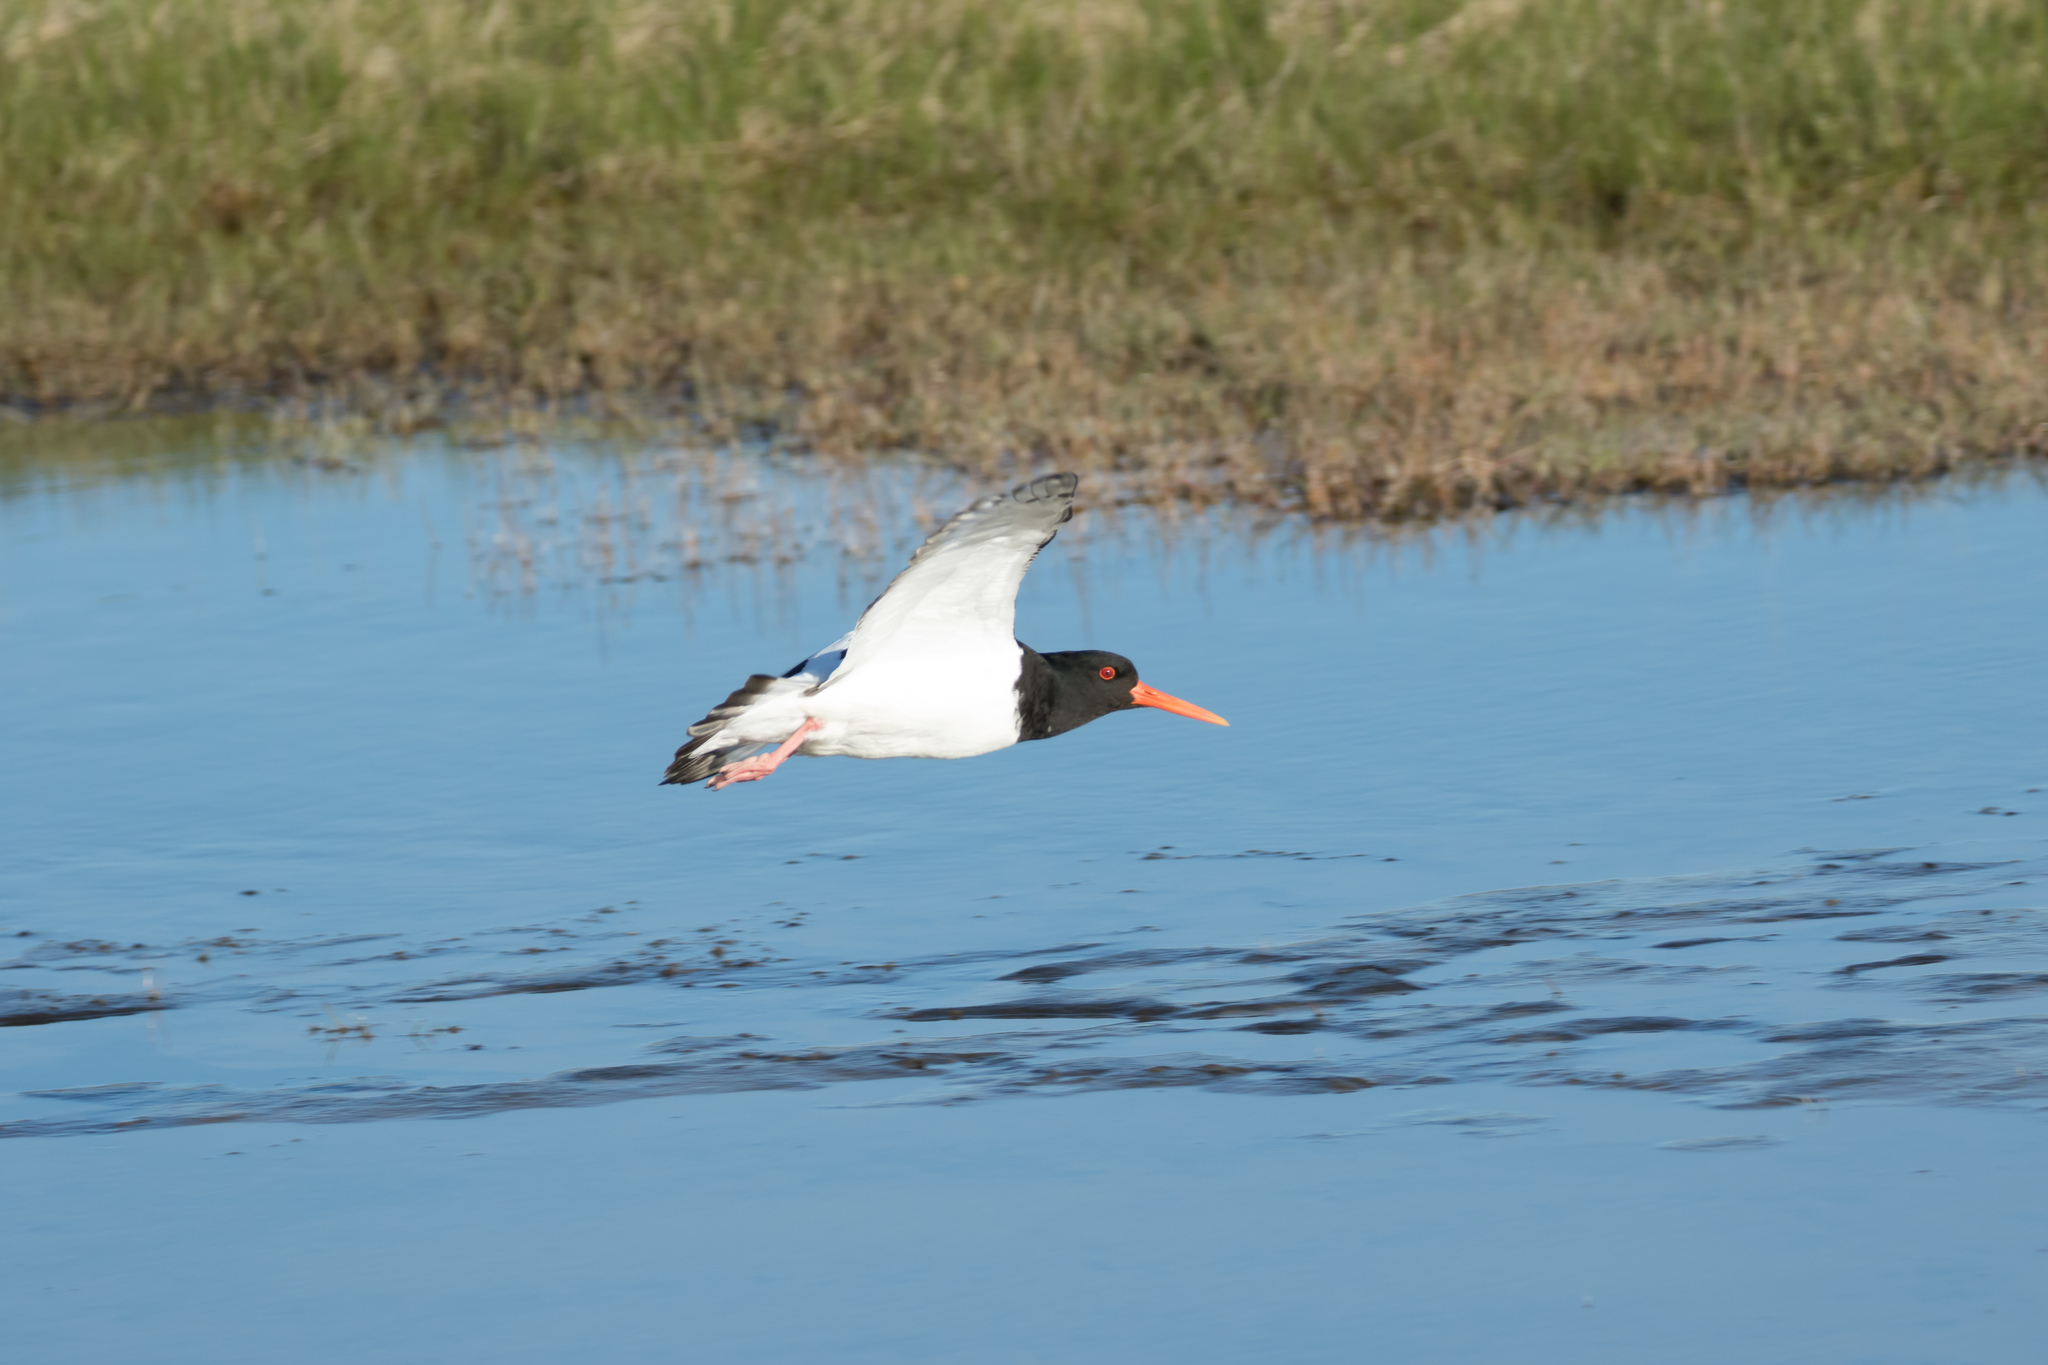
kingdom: Animalia
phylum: Chordata
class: Aves
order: Charadriiformes
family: Haematopodidae
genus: Haematopus
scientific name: Haematopus ostralegus
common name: Eurasian oystercatcher
